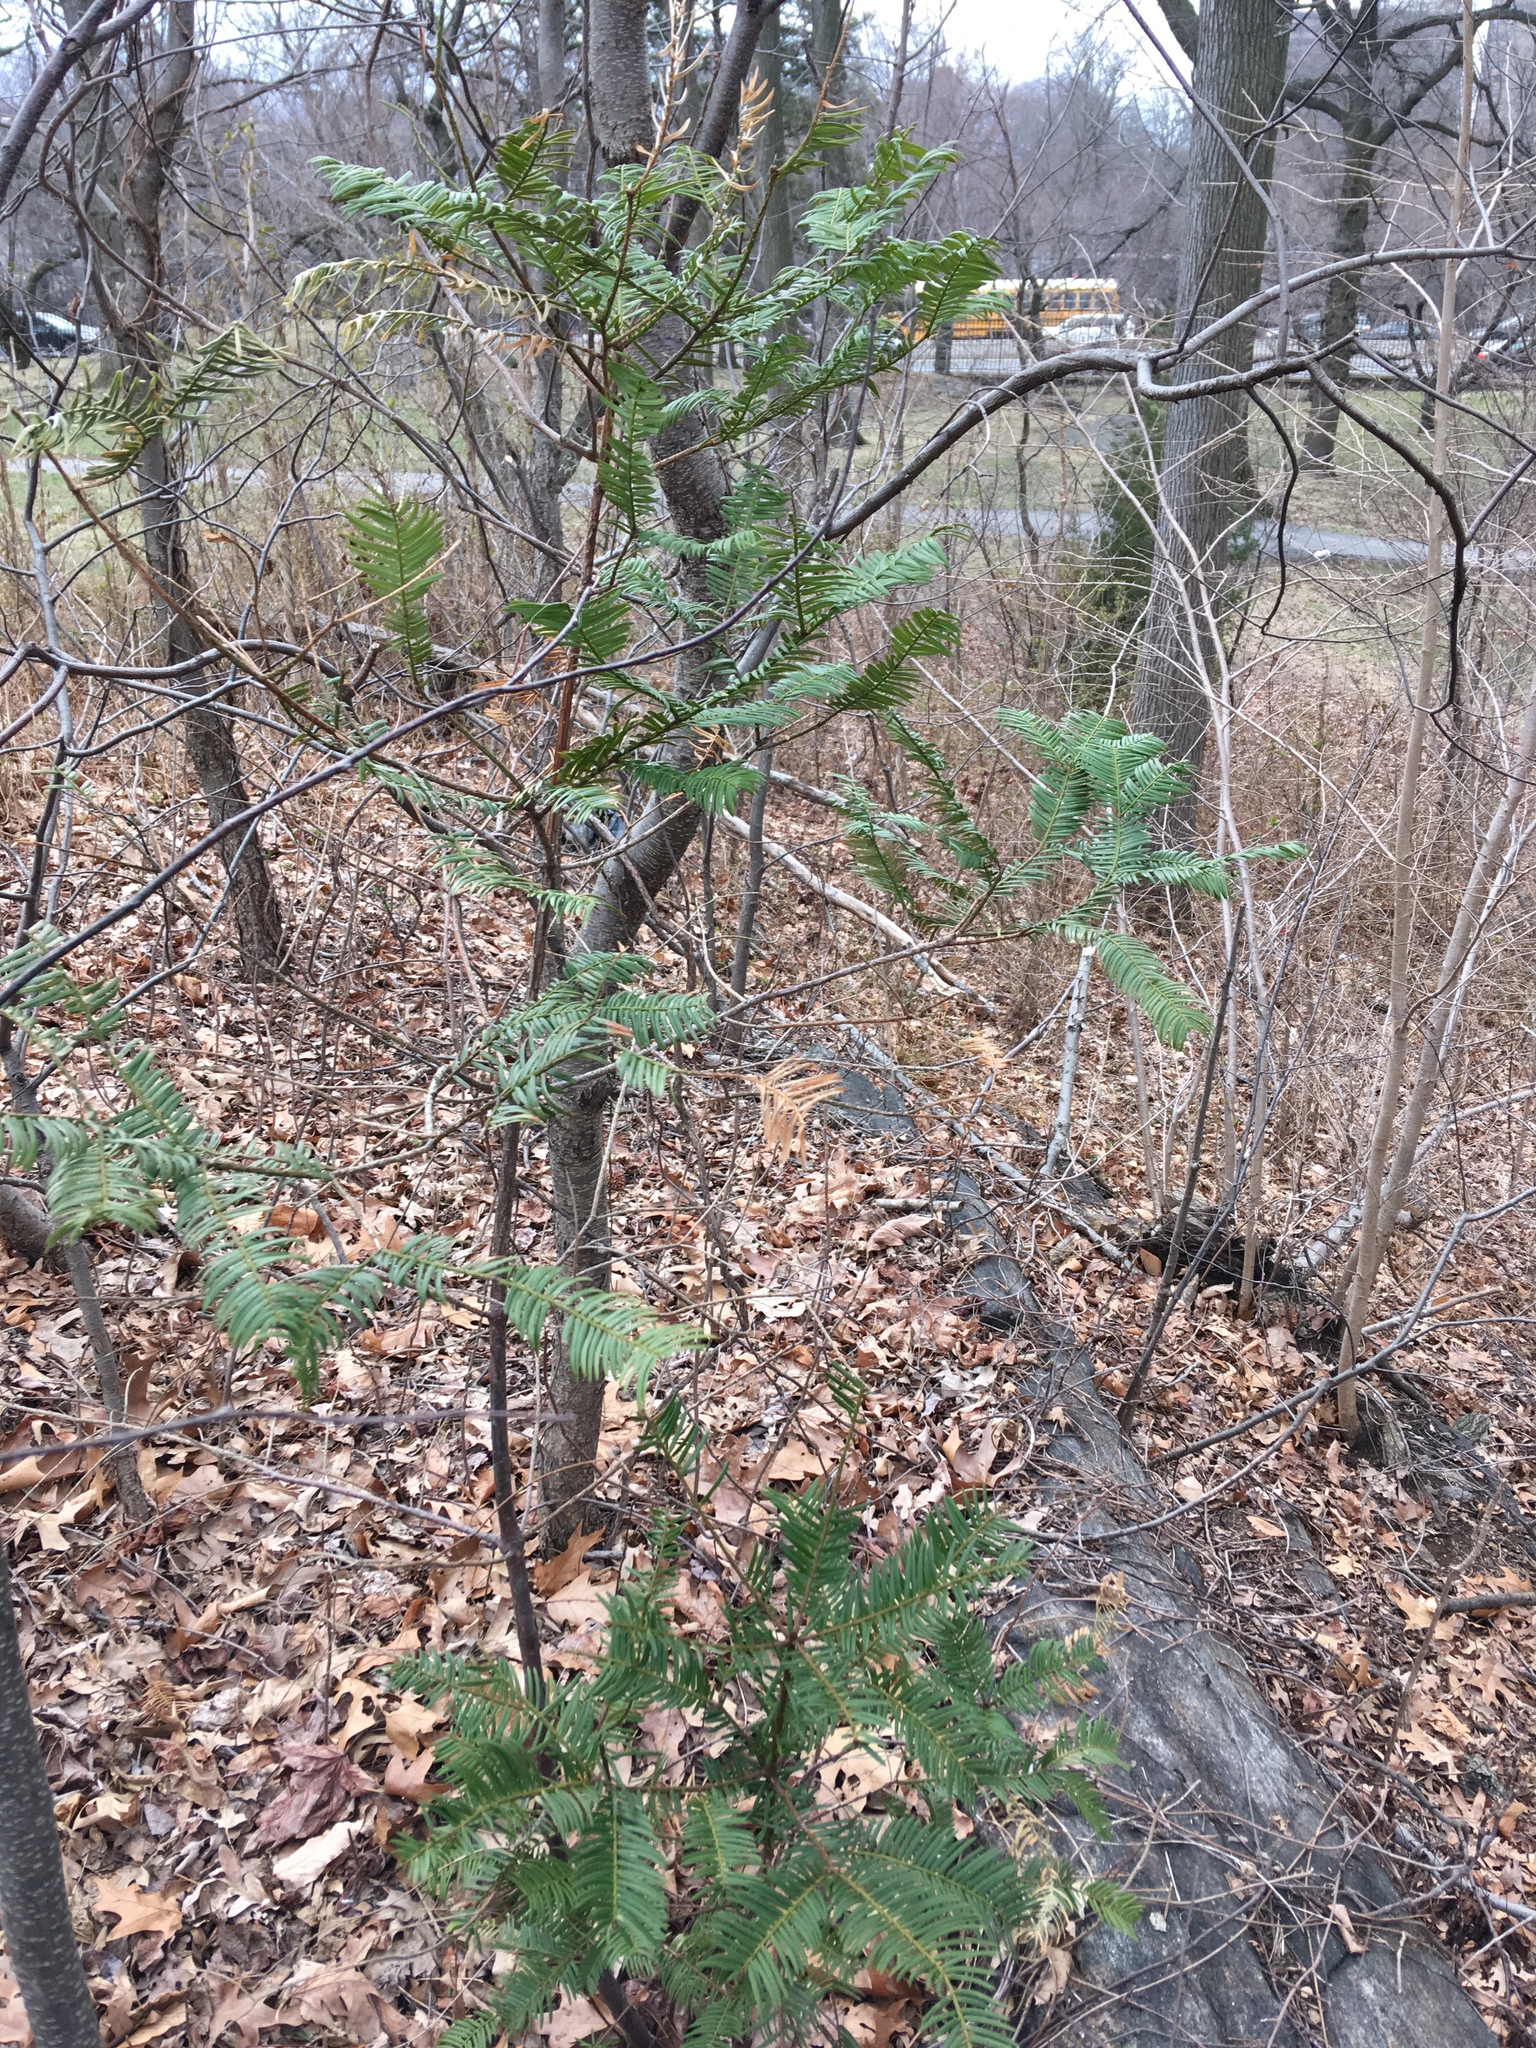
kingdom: Plantae
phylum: Tracheophyta
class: Pinopsida
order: Pinales
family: Cephalotaxaceae
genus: Cephalotaxus
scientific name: Cephalotaxus harringtonia
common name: Japanese plum-yew
